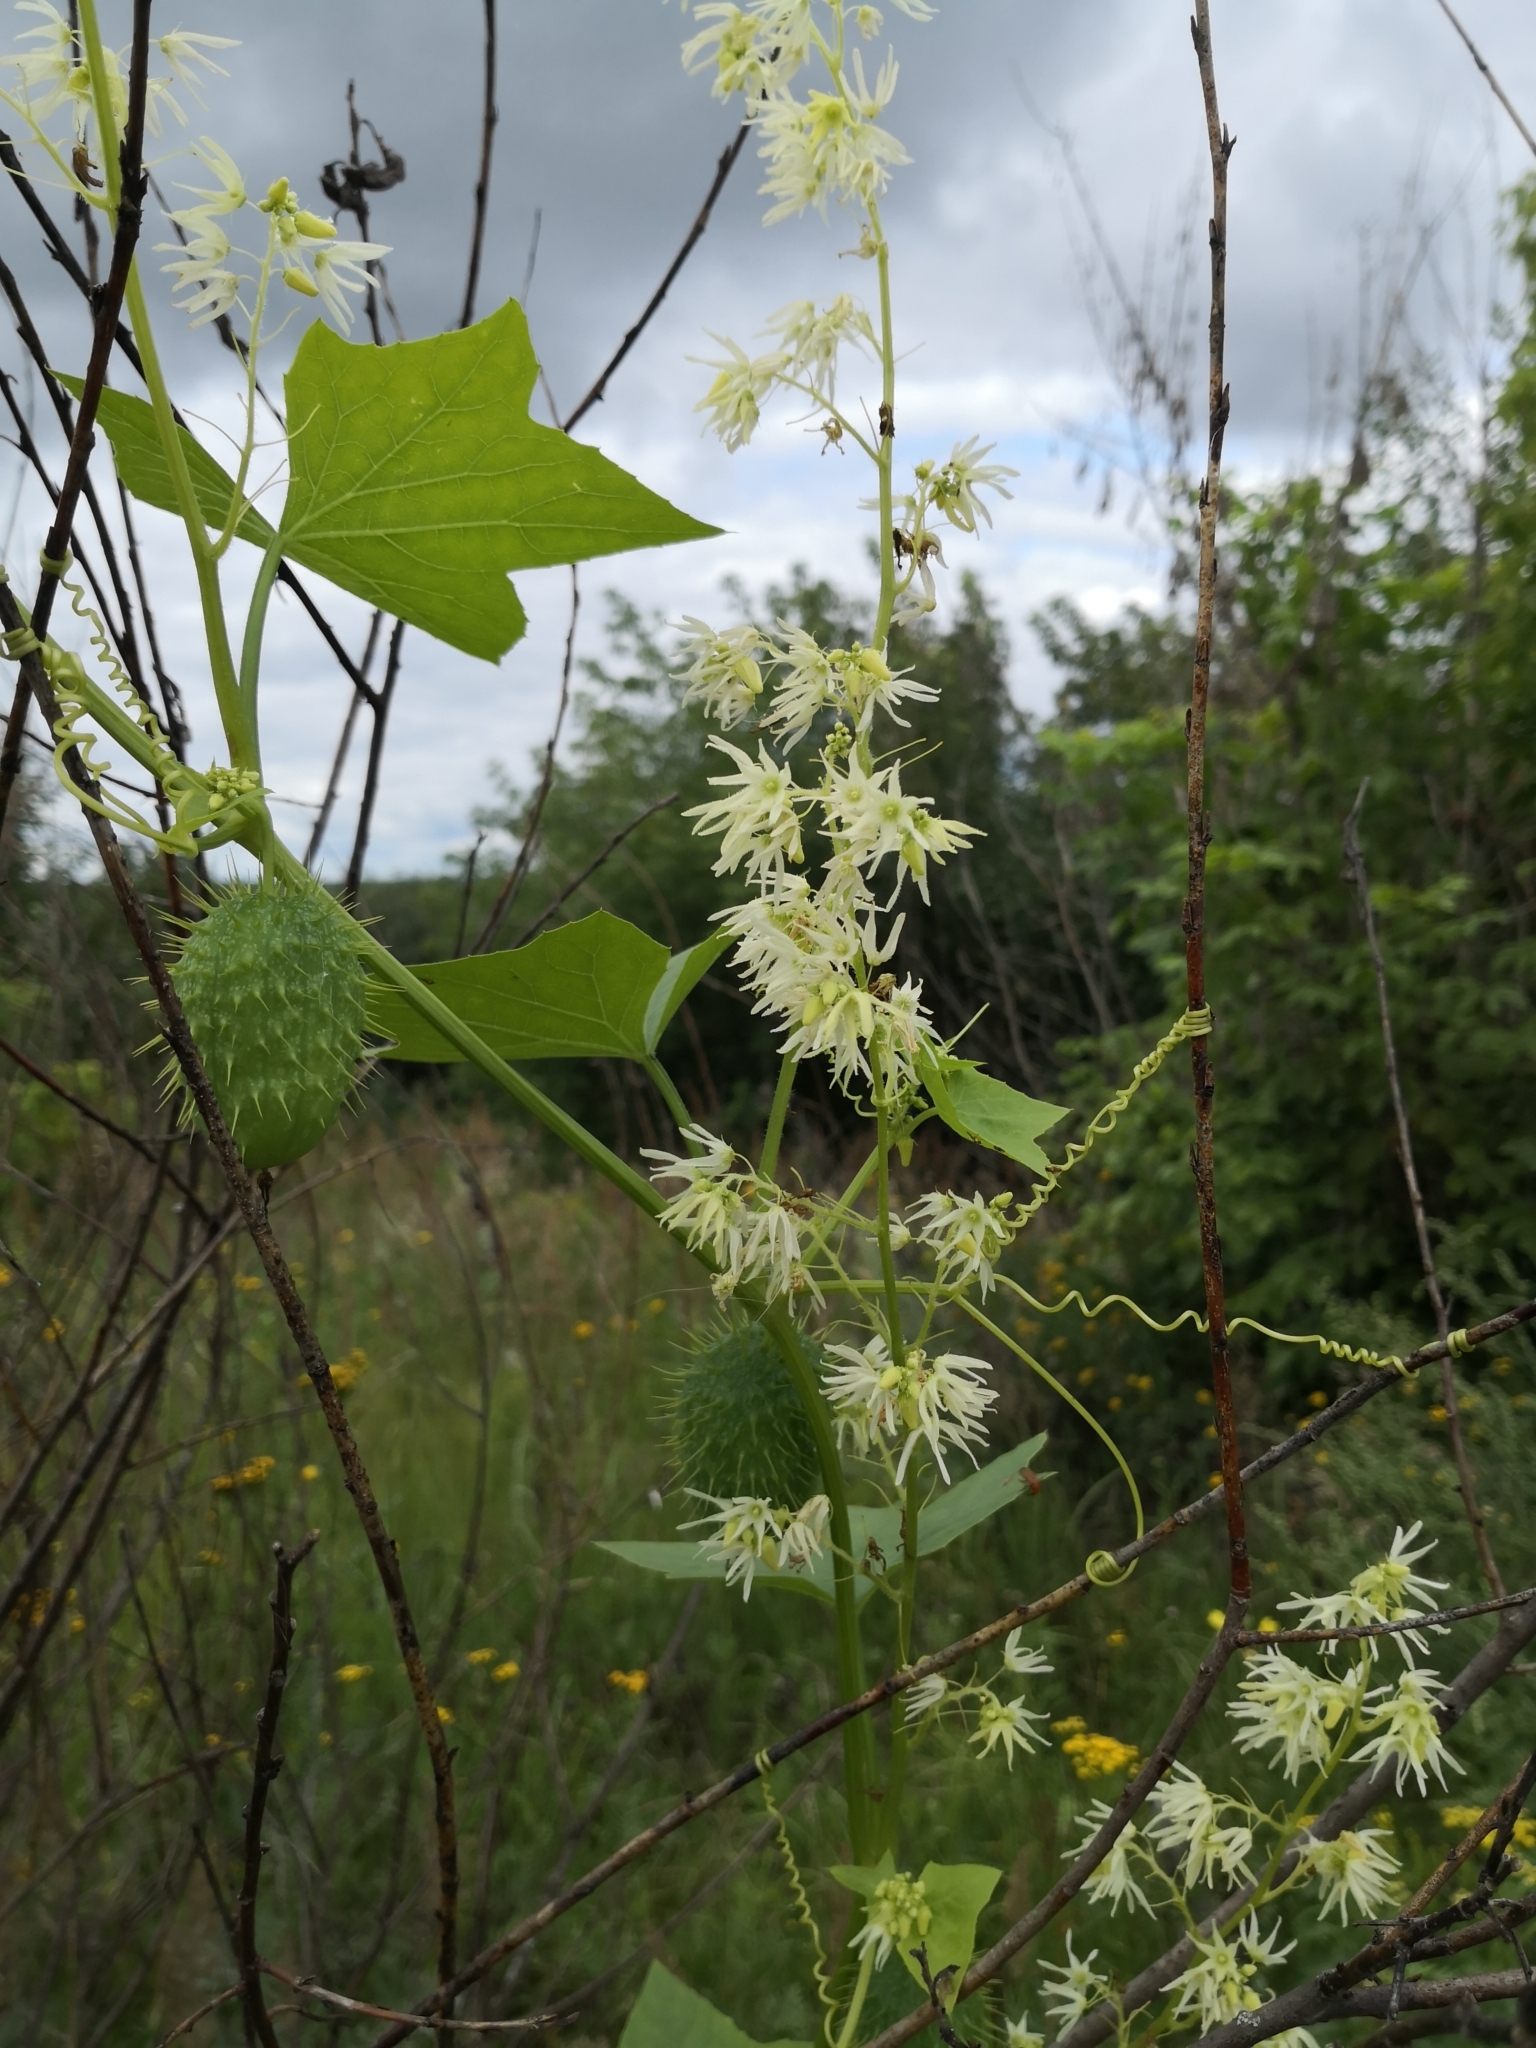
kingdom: Plantae
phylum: Tracheophyta
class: Magnoliopsida
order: Cucurbitales
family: Cucurbitaceae
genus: Echinocystis
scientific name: Echinocystis lobata
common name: Wild cucumber
